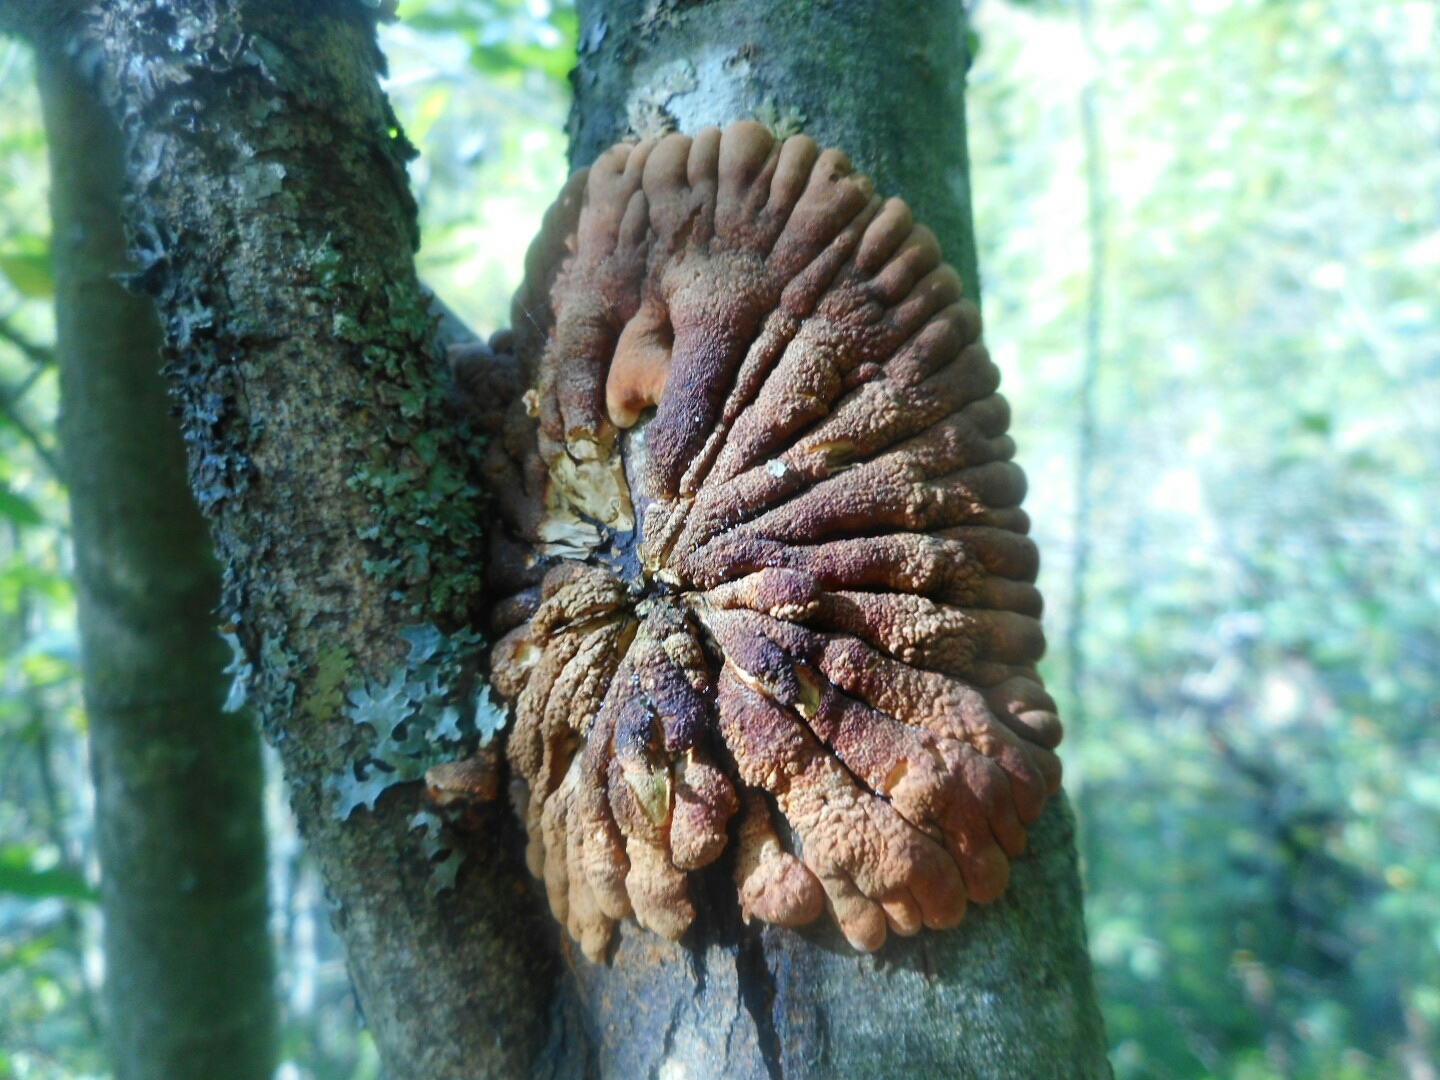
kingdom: Fungi
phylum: Ascomycota
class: Sordariomycetes
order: Hypocreales
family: Hypocreaceae
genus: Hypocreopsis
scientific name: Hypocreopsis lichenoides
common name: Willow gloves
